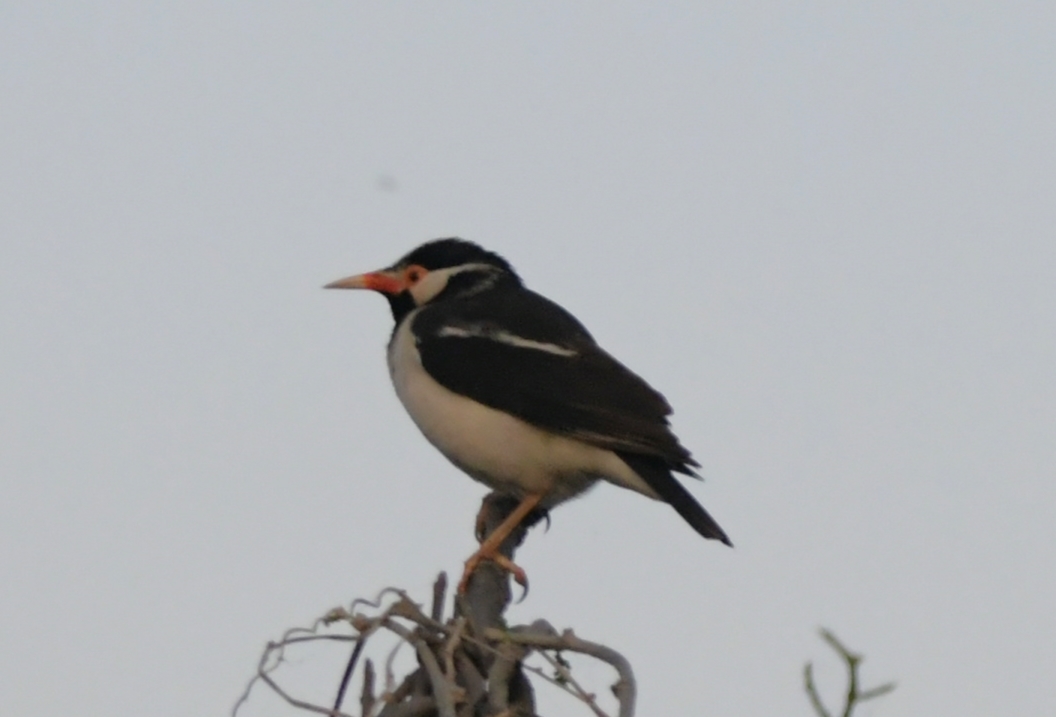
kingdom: Animalia
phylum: Chordata
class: Aves
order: Passeriformes
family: Sturnidae
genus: Gracupica
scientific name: Gracupica contra
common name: Pied myna
